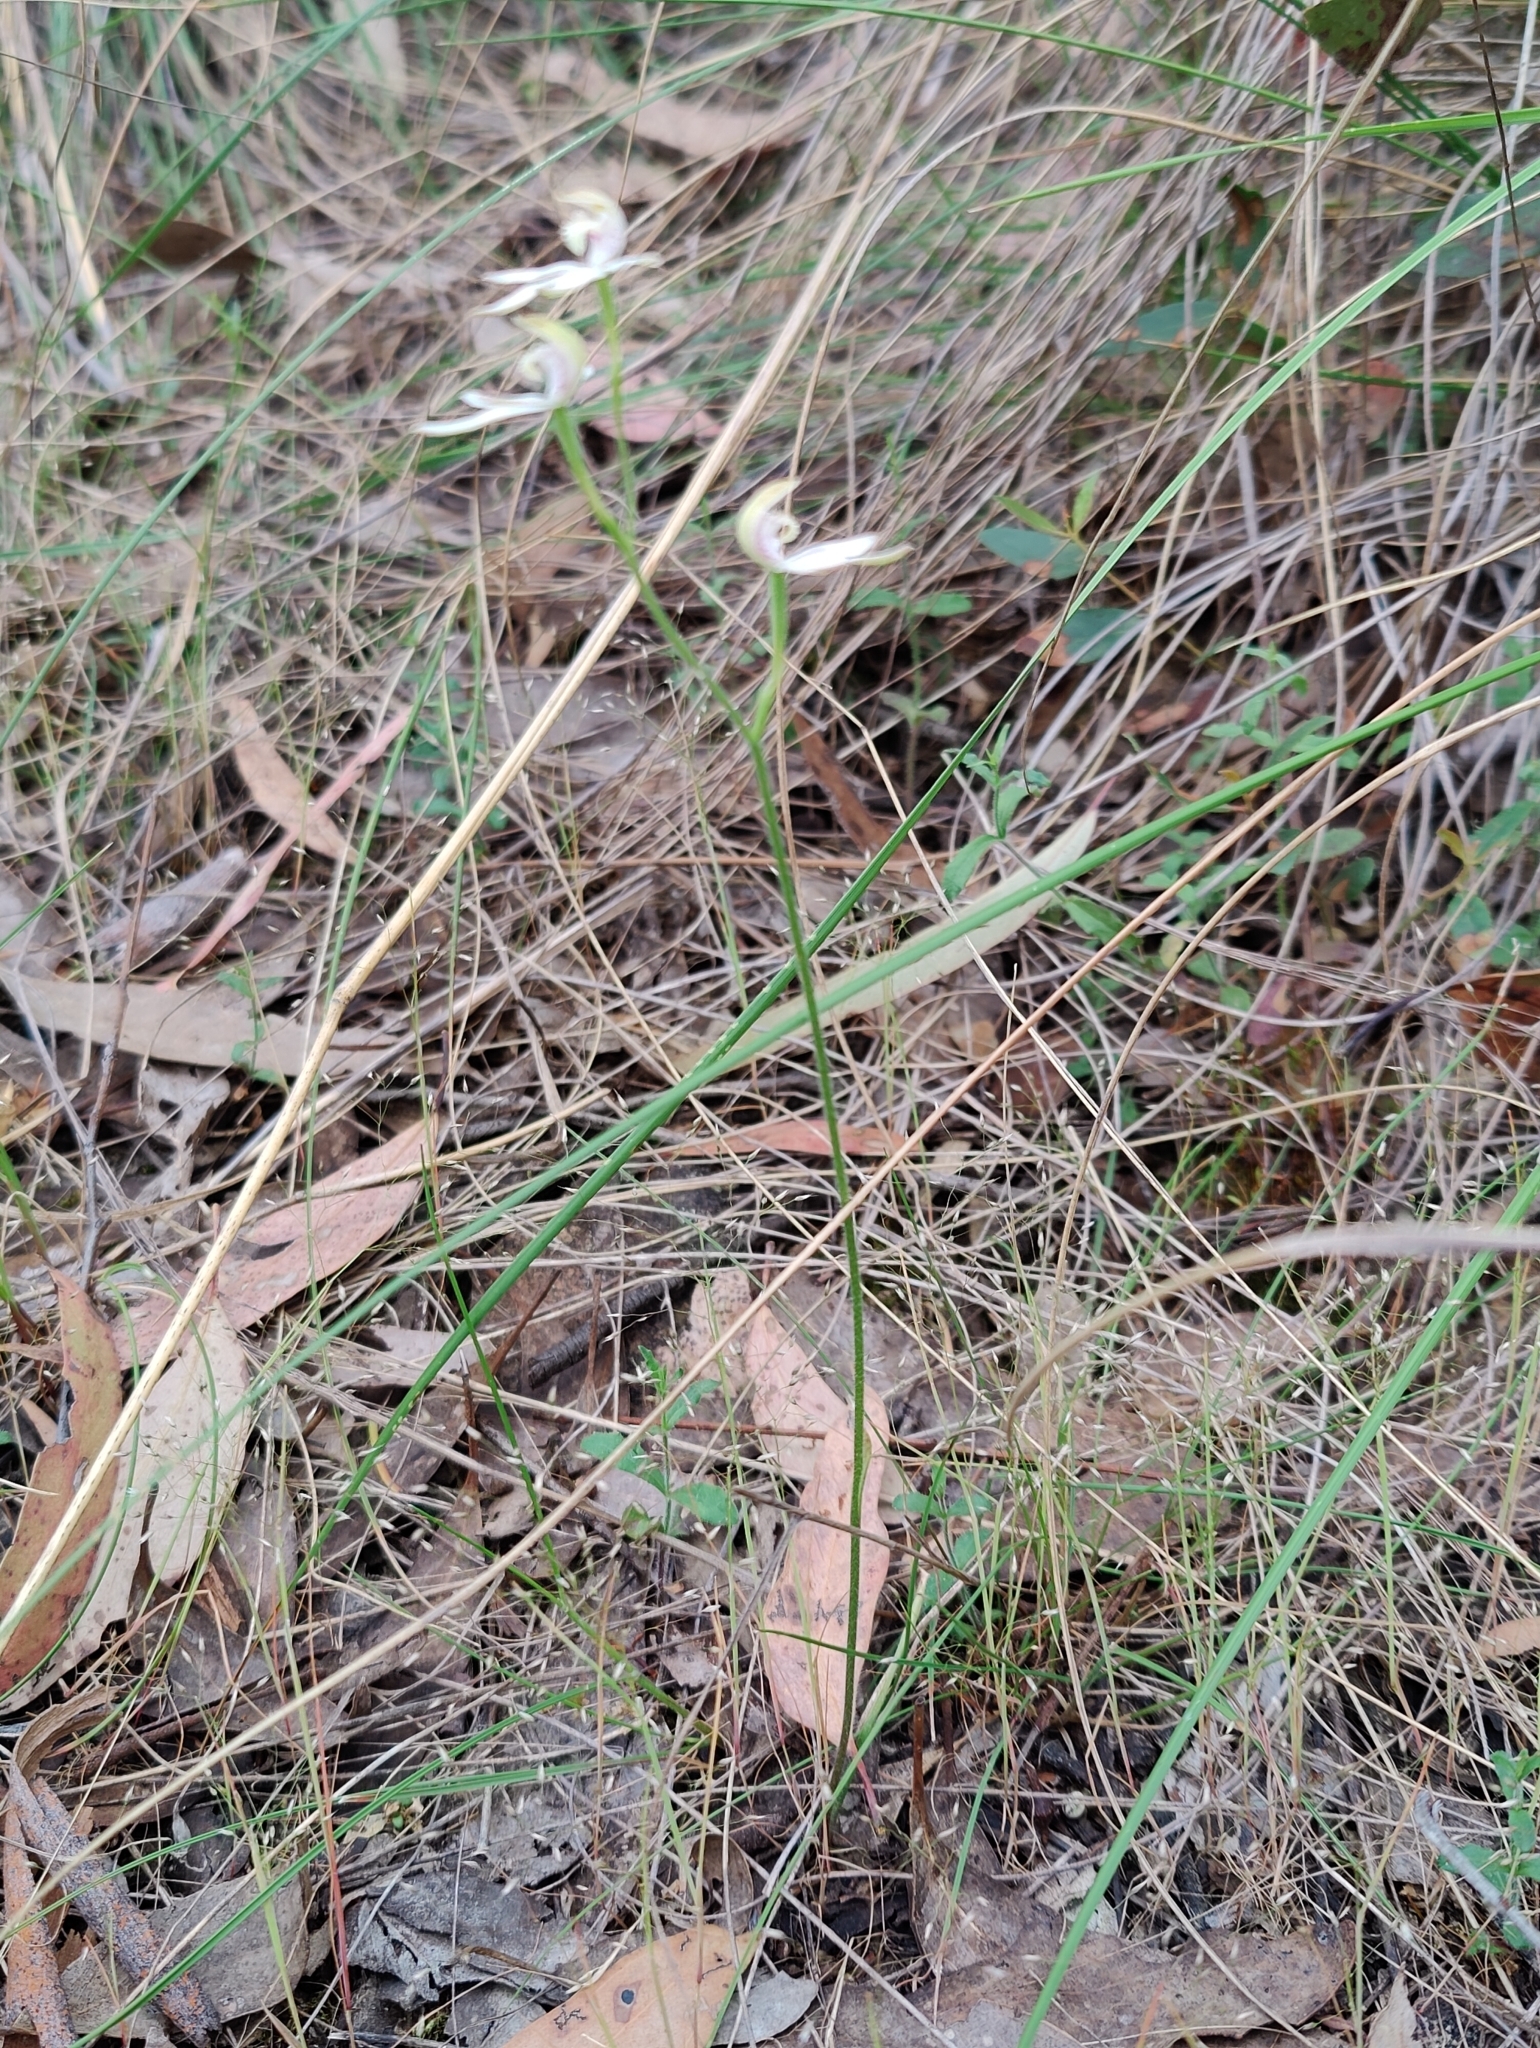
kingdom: Plantae
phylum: Tracheophyta
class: Liliopsida
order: Asparagales
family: Orchidaceae
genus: Caladenia
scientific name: Caladenia moschata
